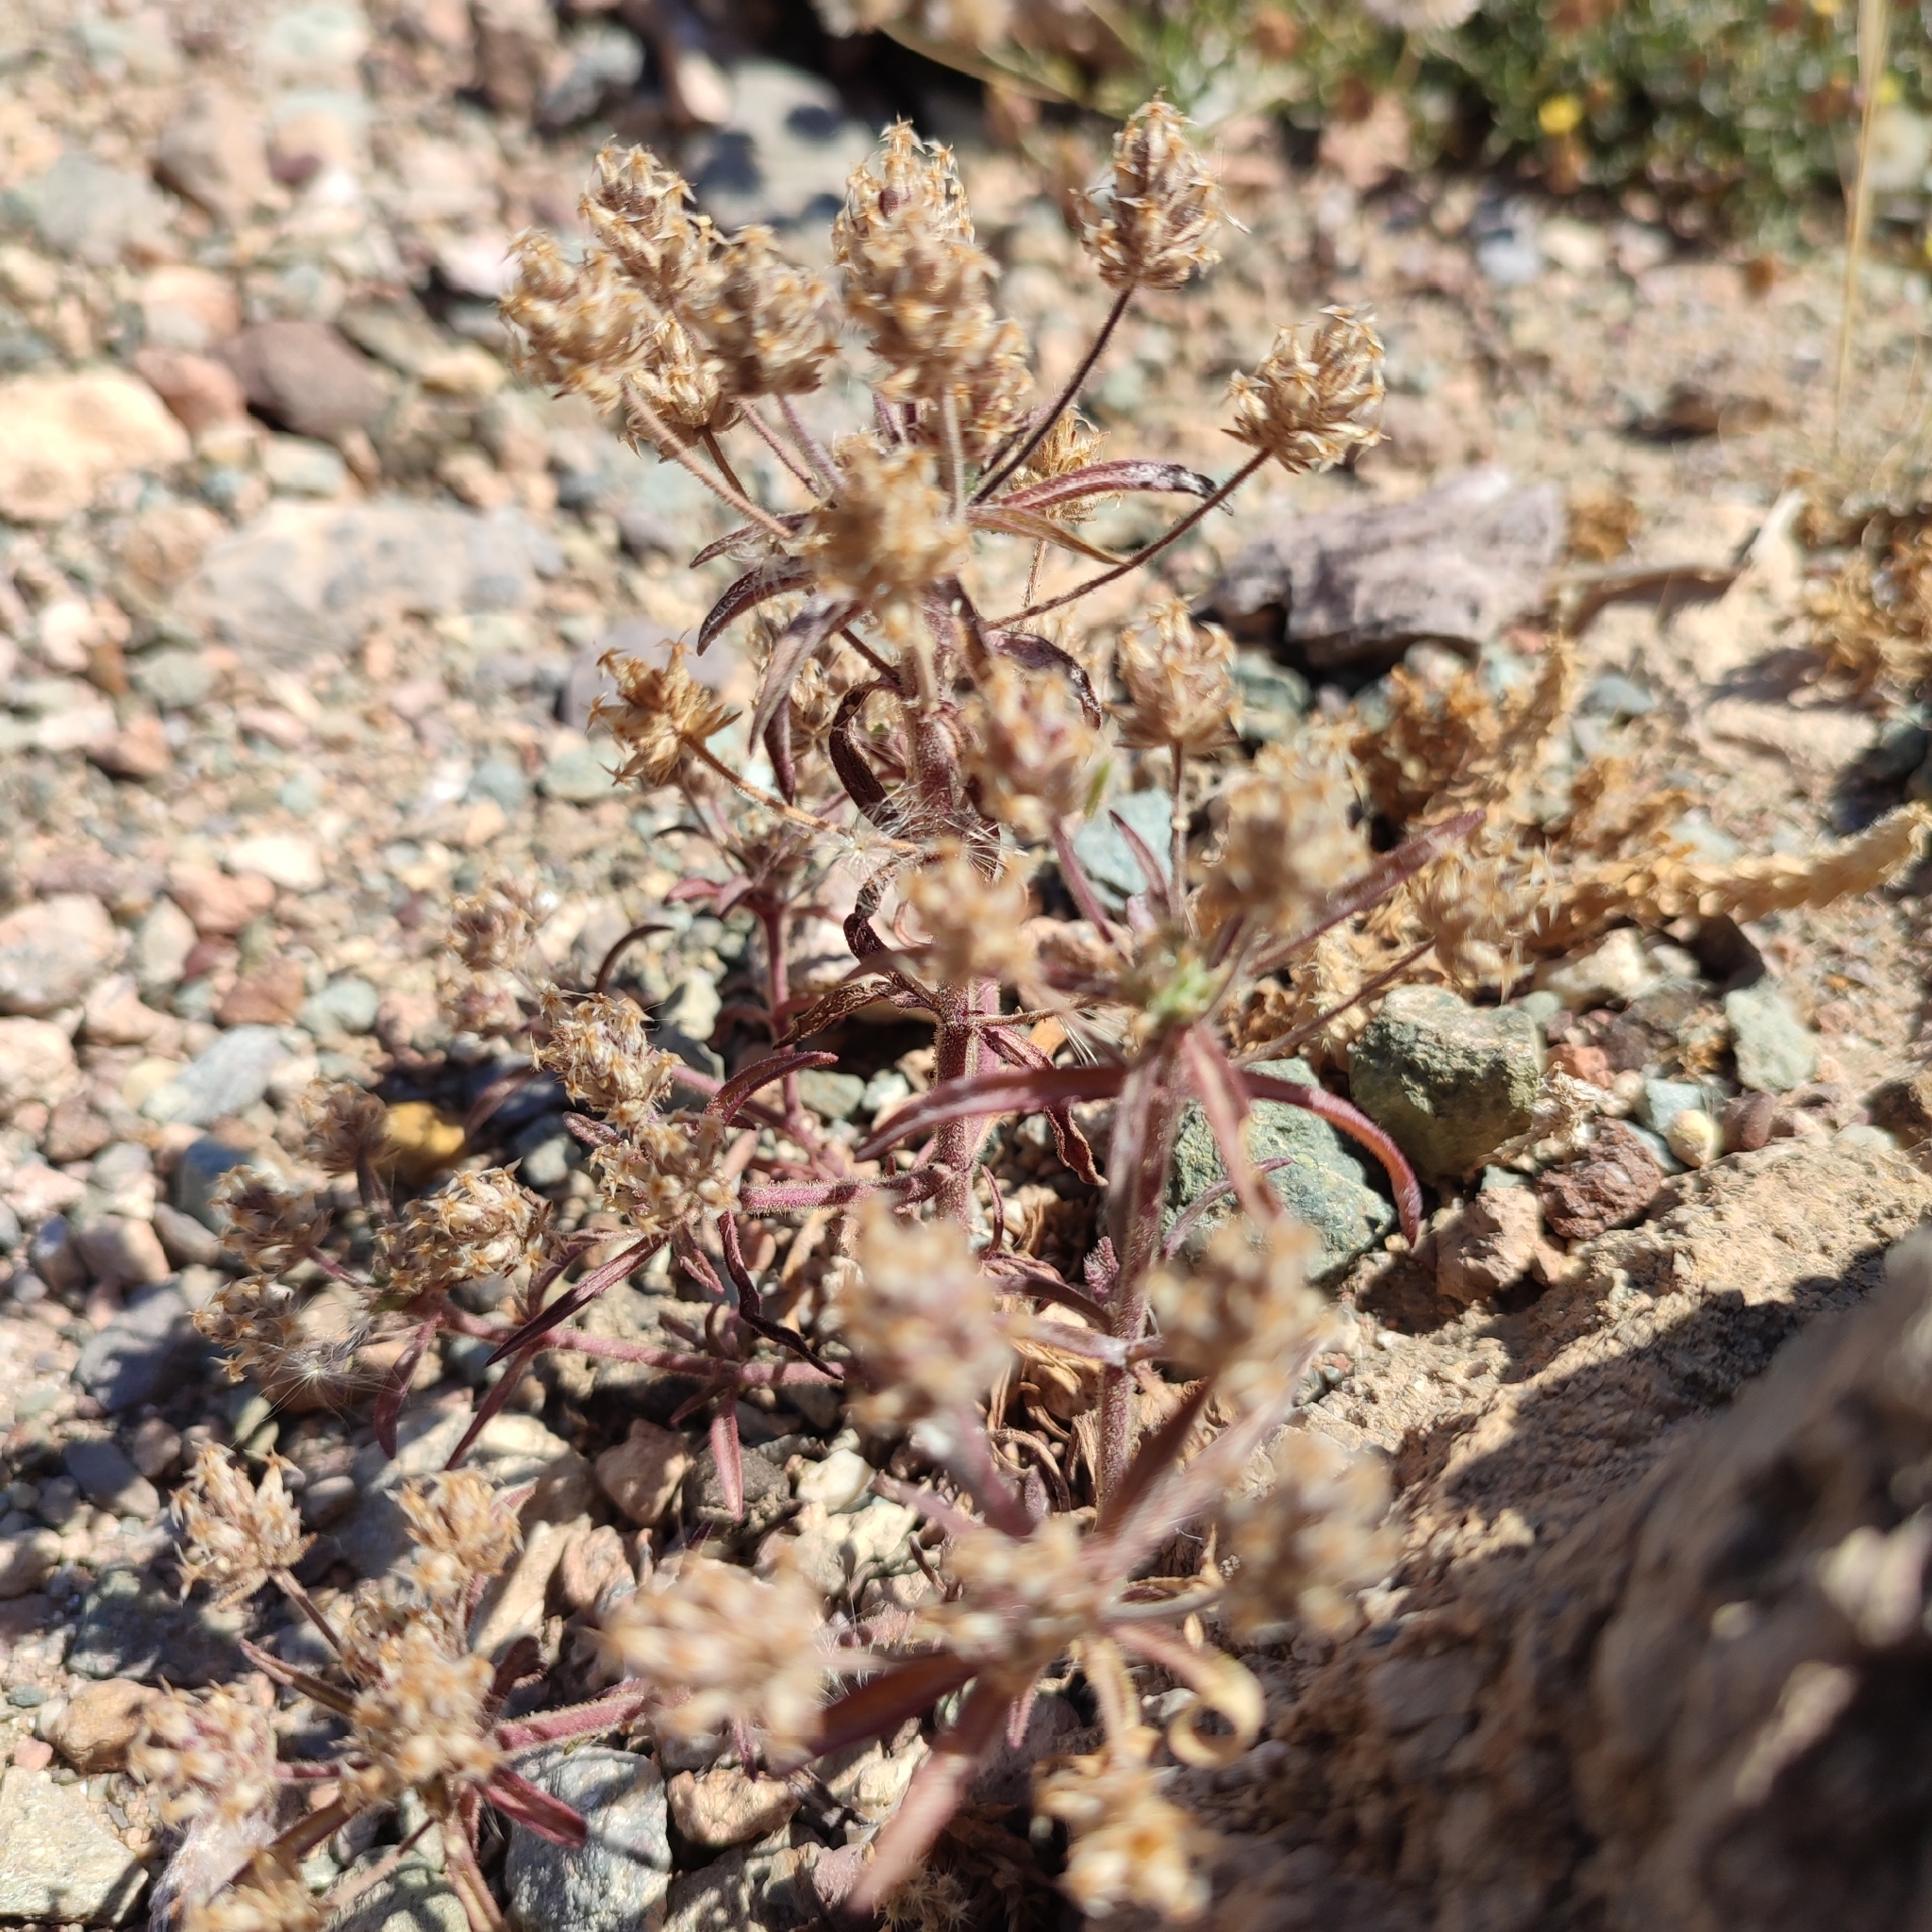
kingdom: Plantae
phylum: Tracheophyta
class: Magnoliopsida
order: Lamiales
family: Plantaginaceae
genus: Plantago
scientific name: Plantago afra
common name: Glandular plantain
